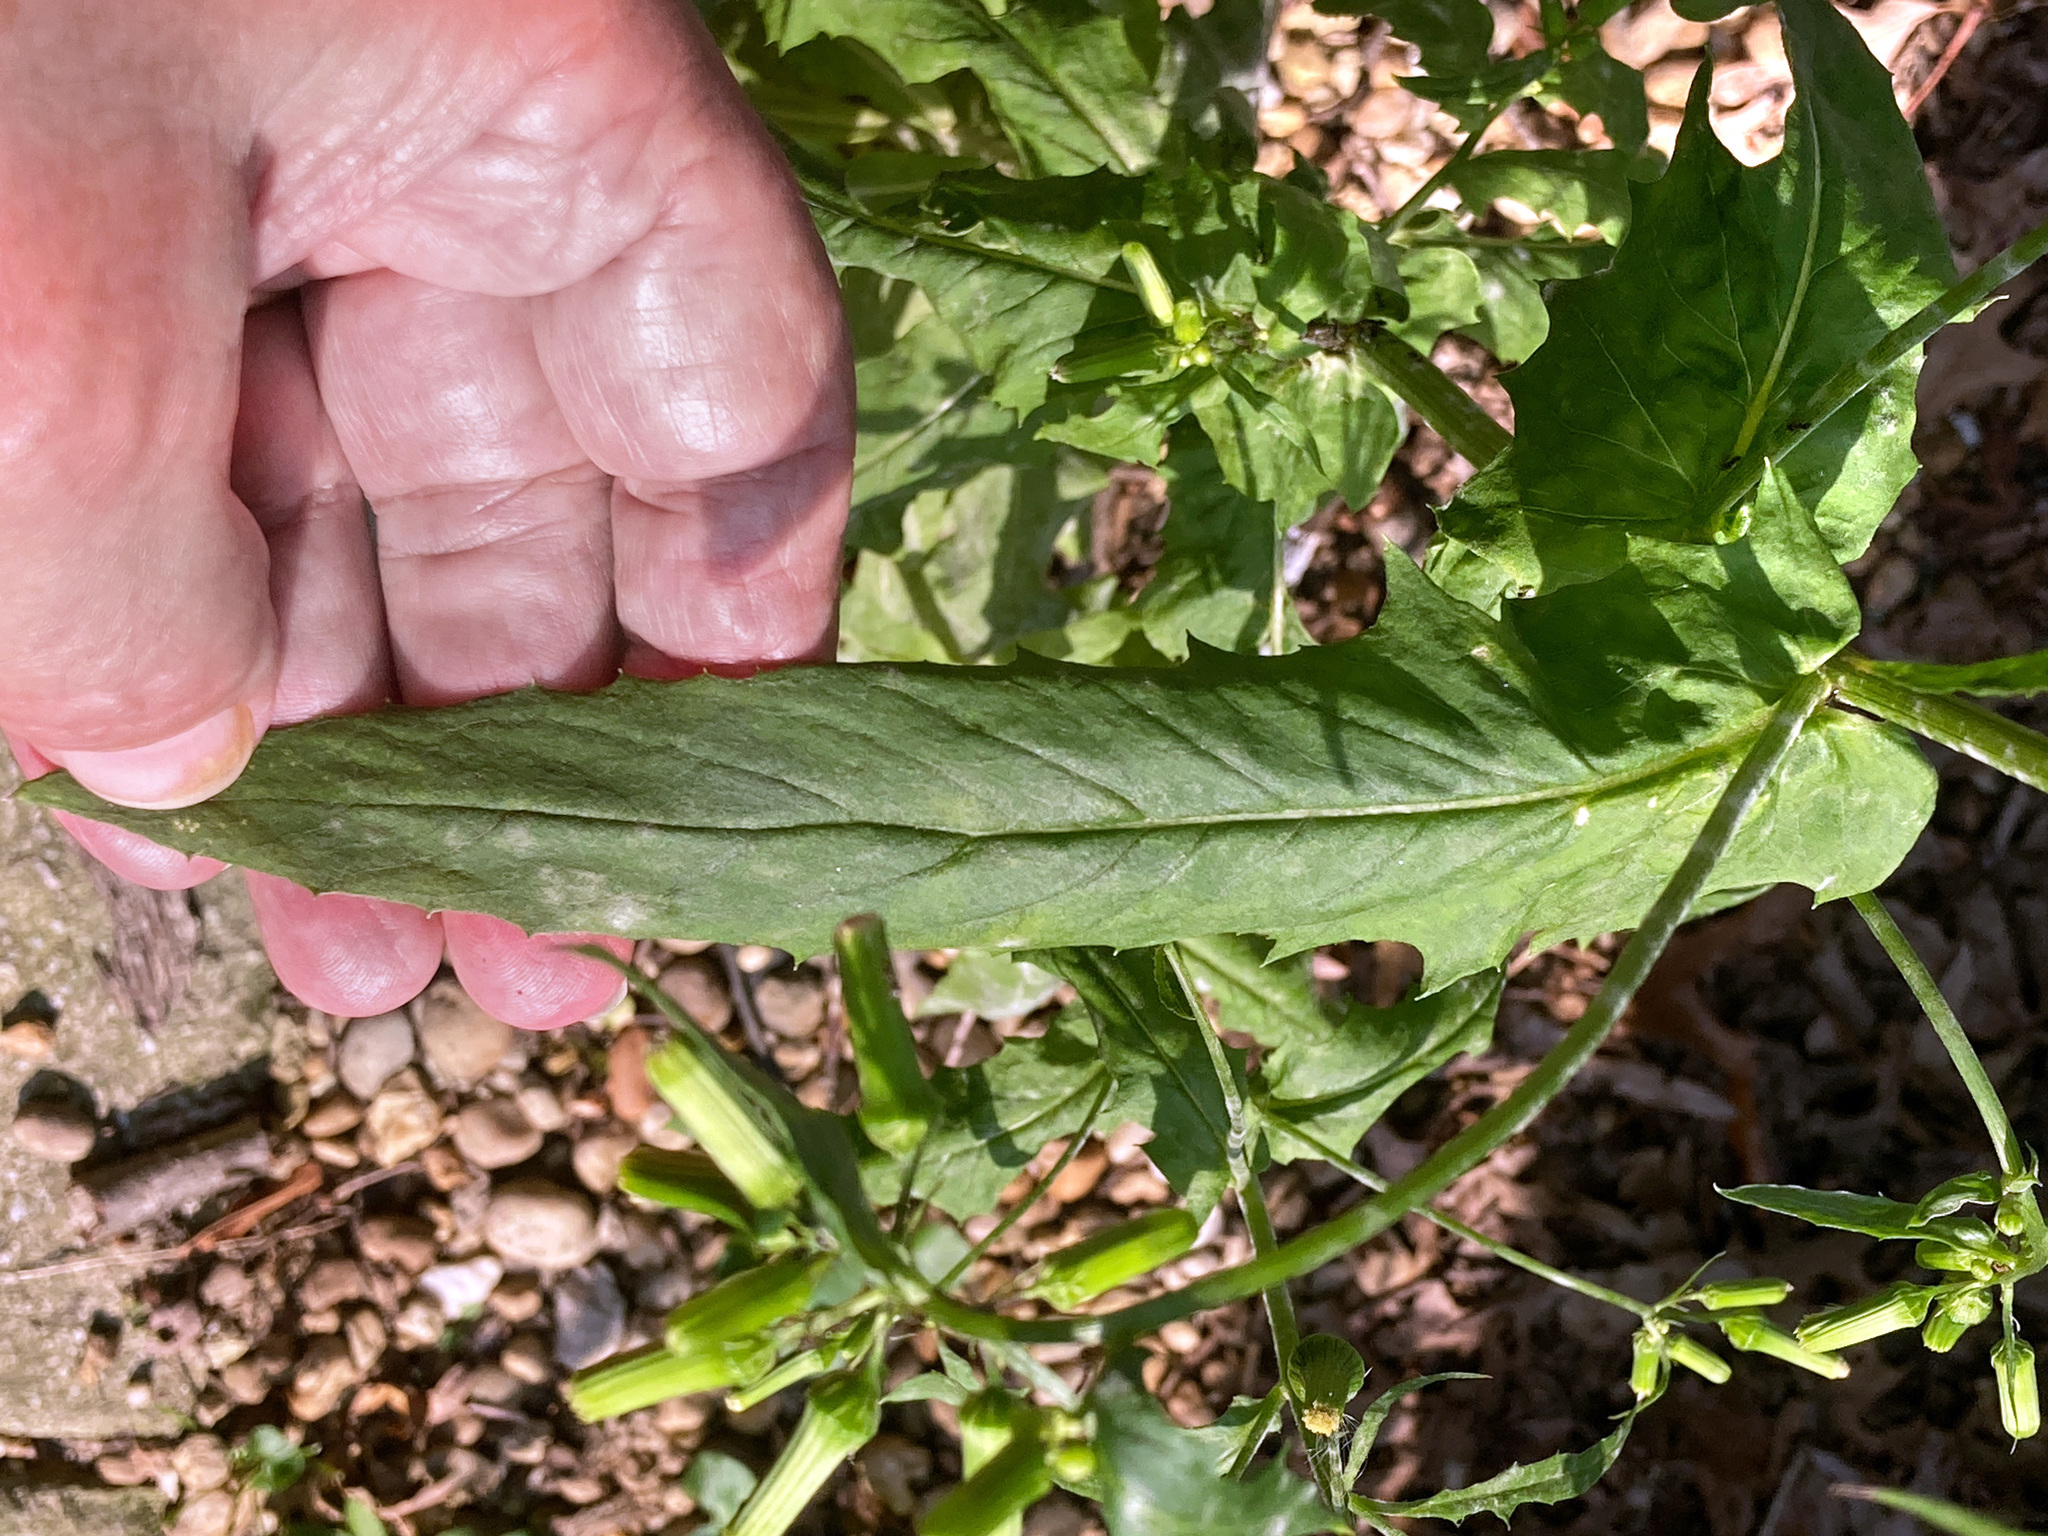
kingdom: Plantae
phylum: Tracheophyta
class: Magnoliopsida
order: Asterales
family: Asteraceae
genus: Erechtites
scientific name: Erechtites hieraciifolius
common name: American burnweed
